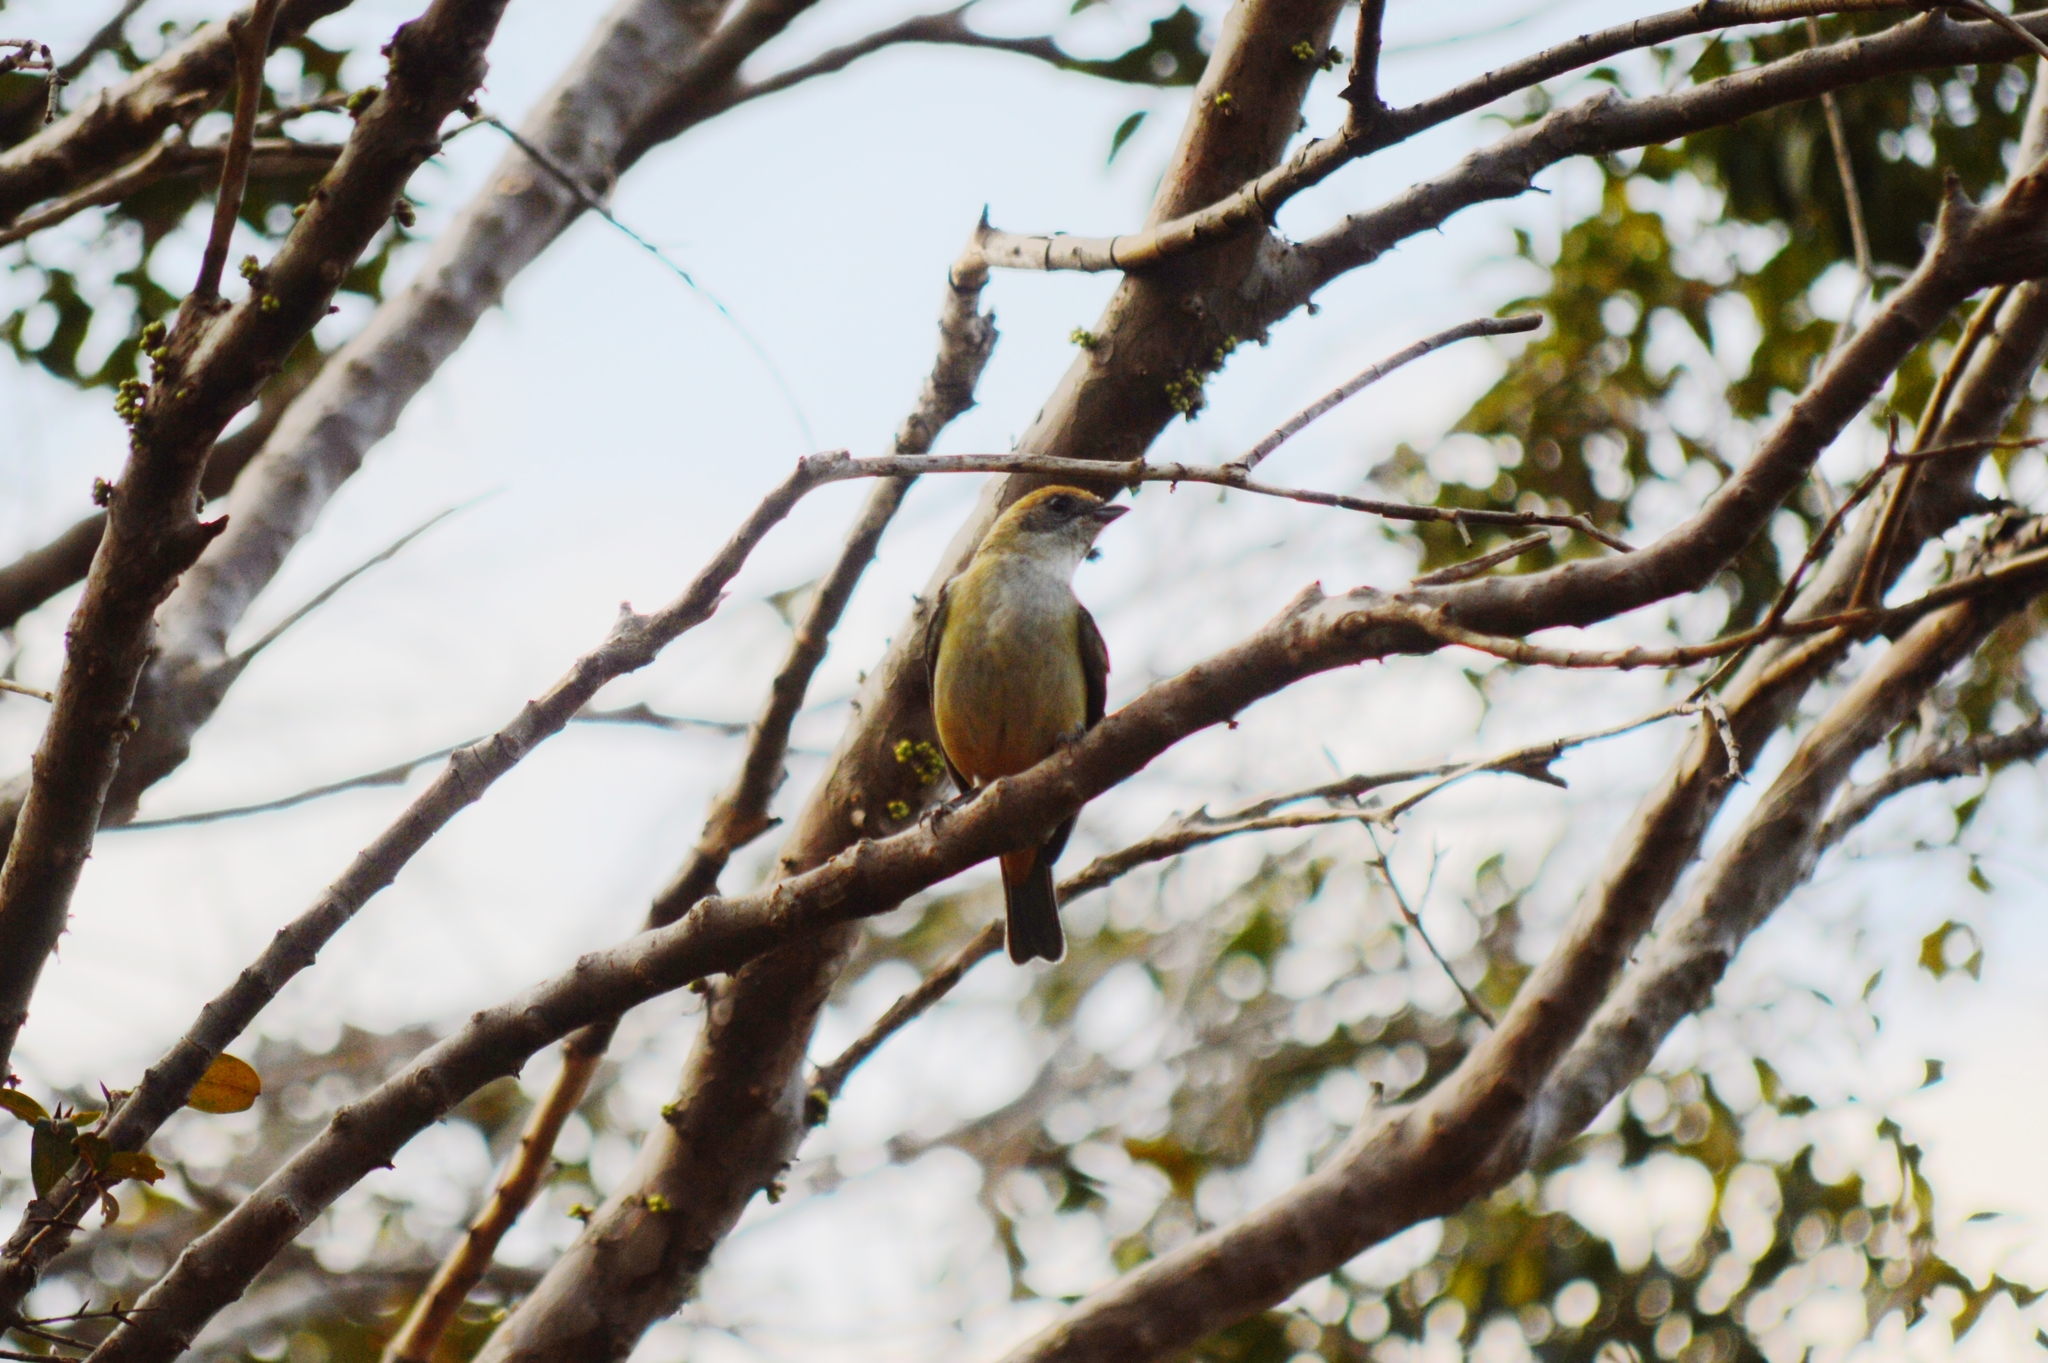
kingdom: Animalia
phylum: Chordata
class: Aves
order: Passeriformes
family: Thraupidae
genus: Stilpnia
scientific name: Stilpnia cayana
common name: Burnished-buff tanager
